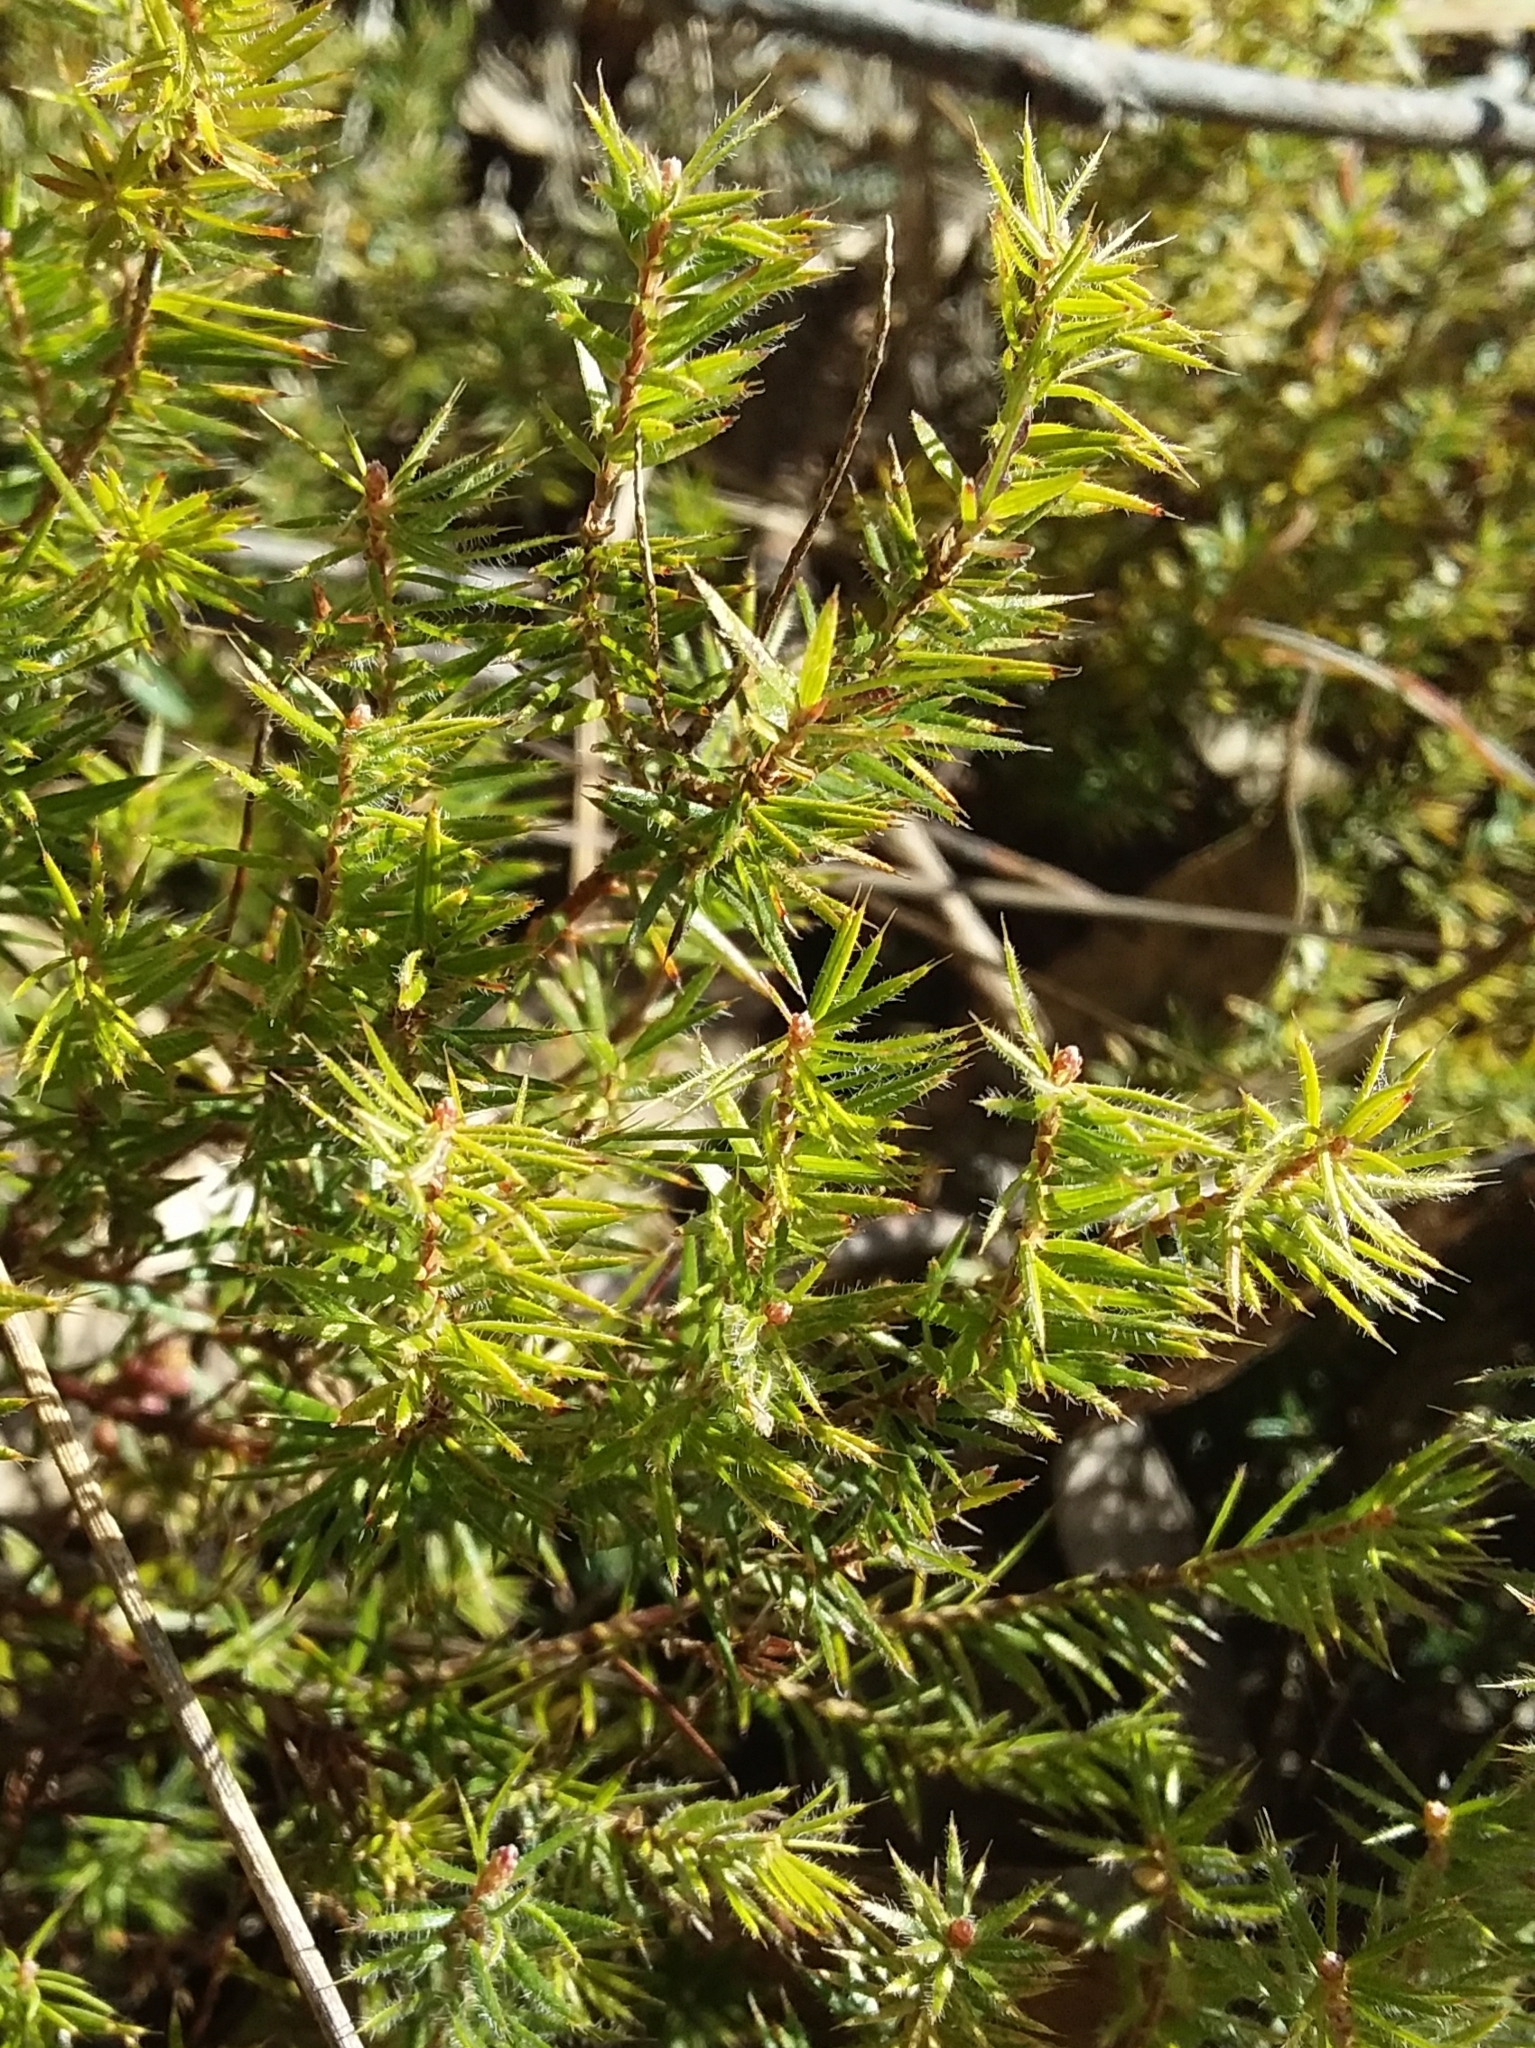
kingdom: Plantae
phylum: Tracheophyta
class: Magnoliopsida
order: Ericales
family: Ericaceae
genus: Acrotriche
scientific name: Acrotriche serrulata
